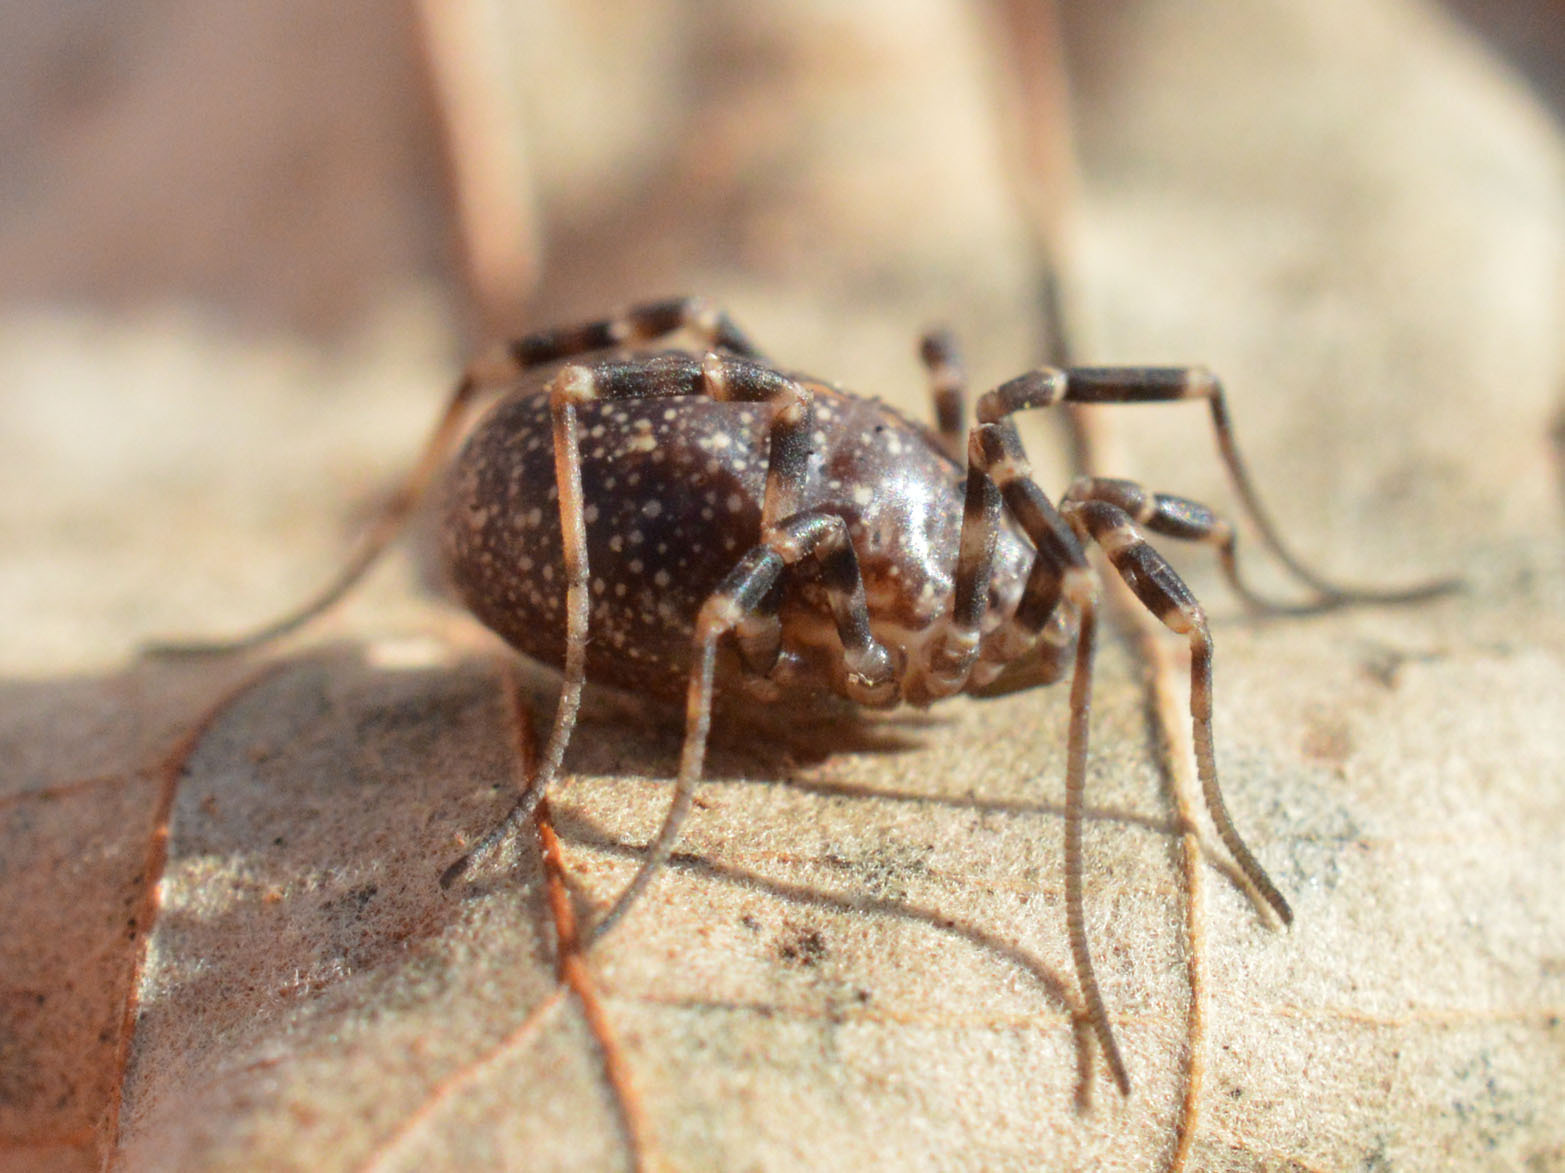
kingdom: Animalia
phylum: Arthropoda
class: Arachnida
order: Opiliones
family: Phalangiidae
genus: Egaenus
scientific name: Egaenus convexus
